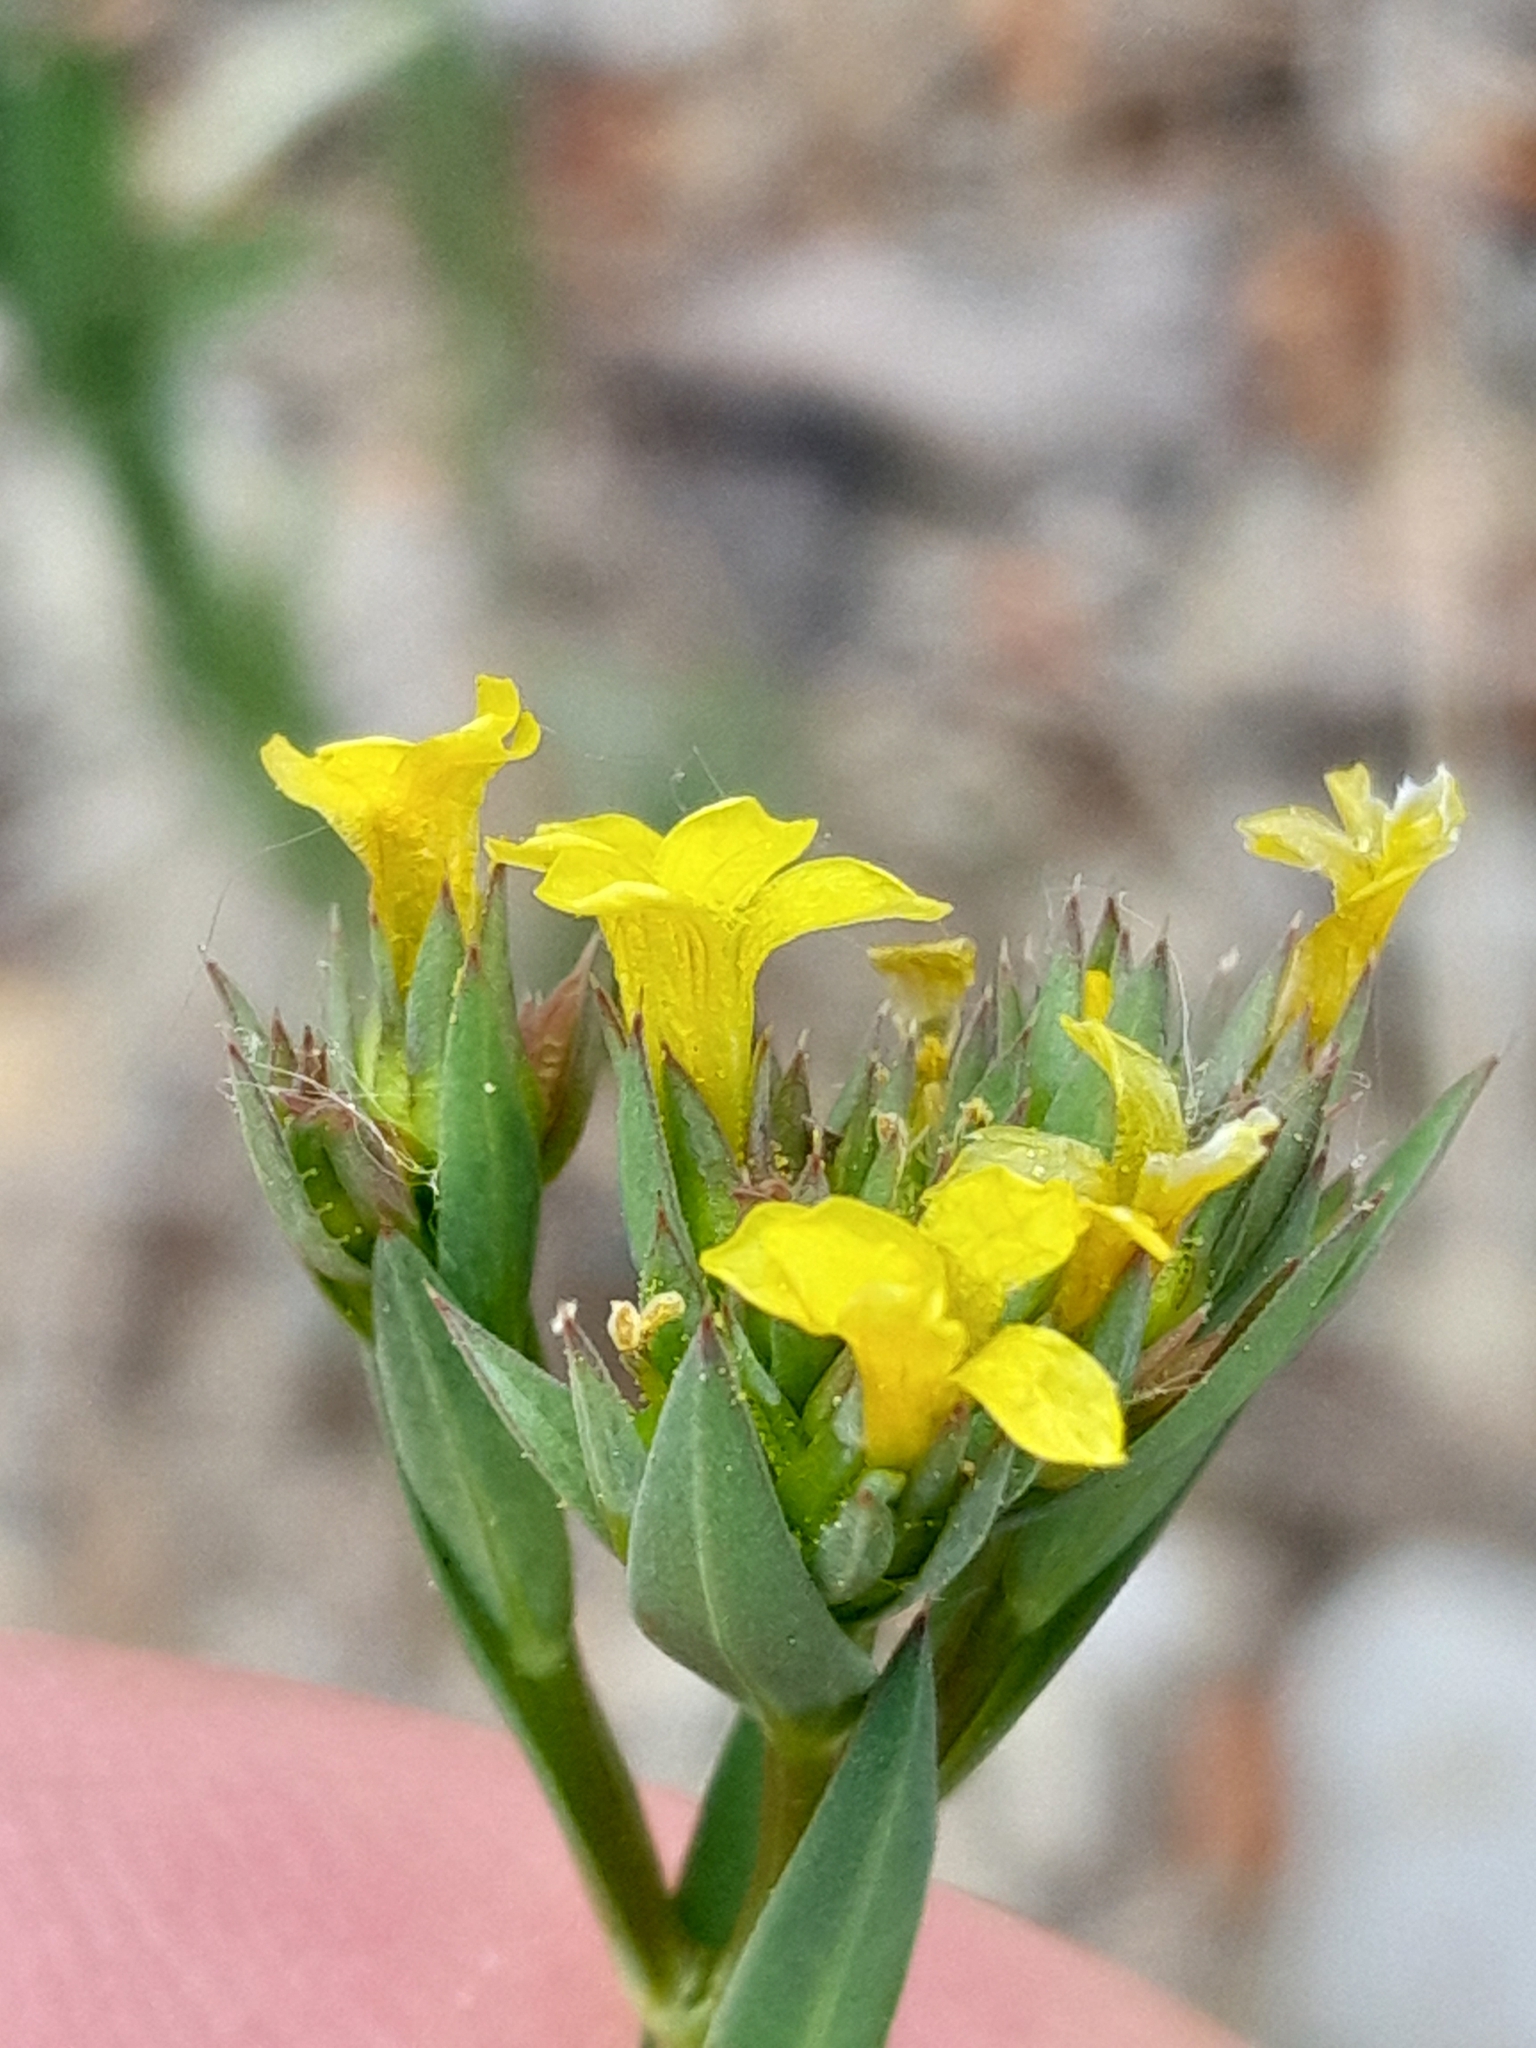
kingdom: Plantae
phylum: Tracheophyta
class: Magnoliopsida
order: Malpighiales
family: Linaceae
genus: Linum
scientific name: Linum strictum
